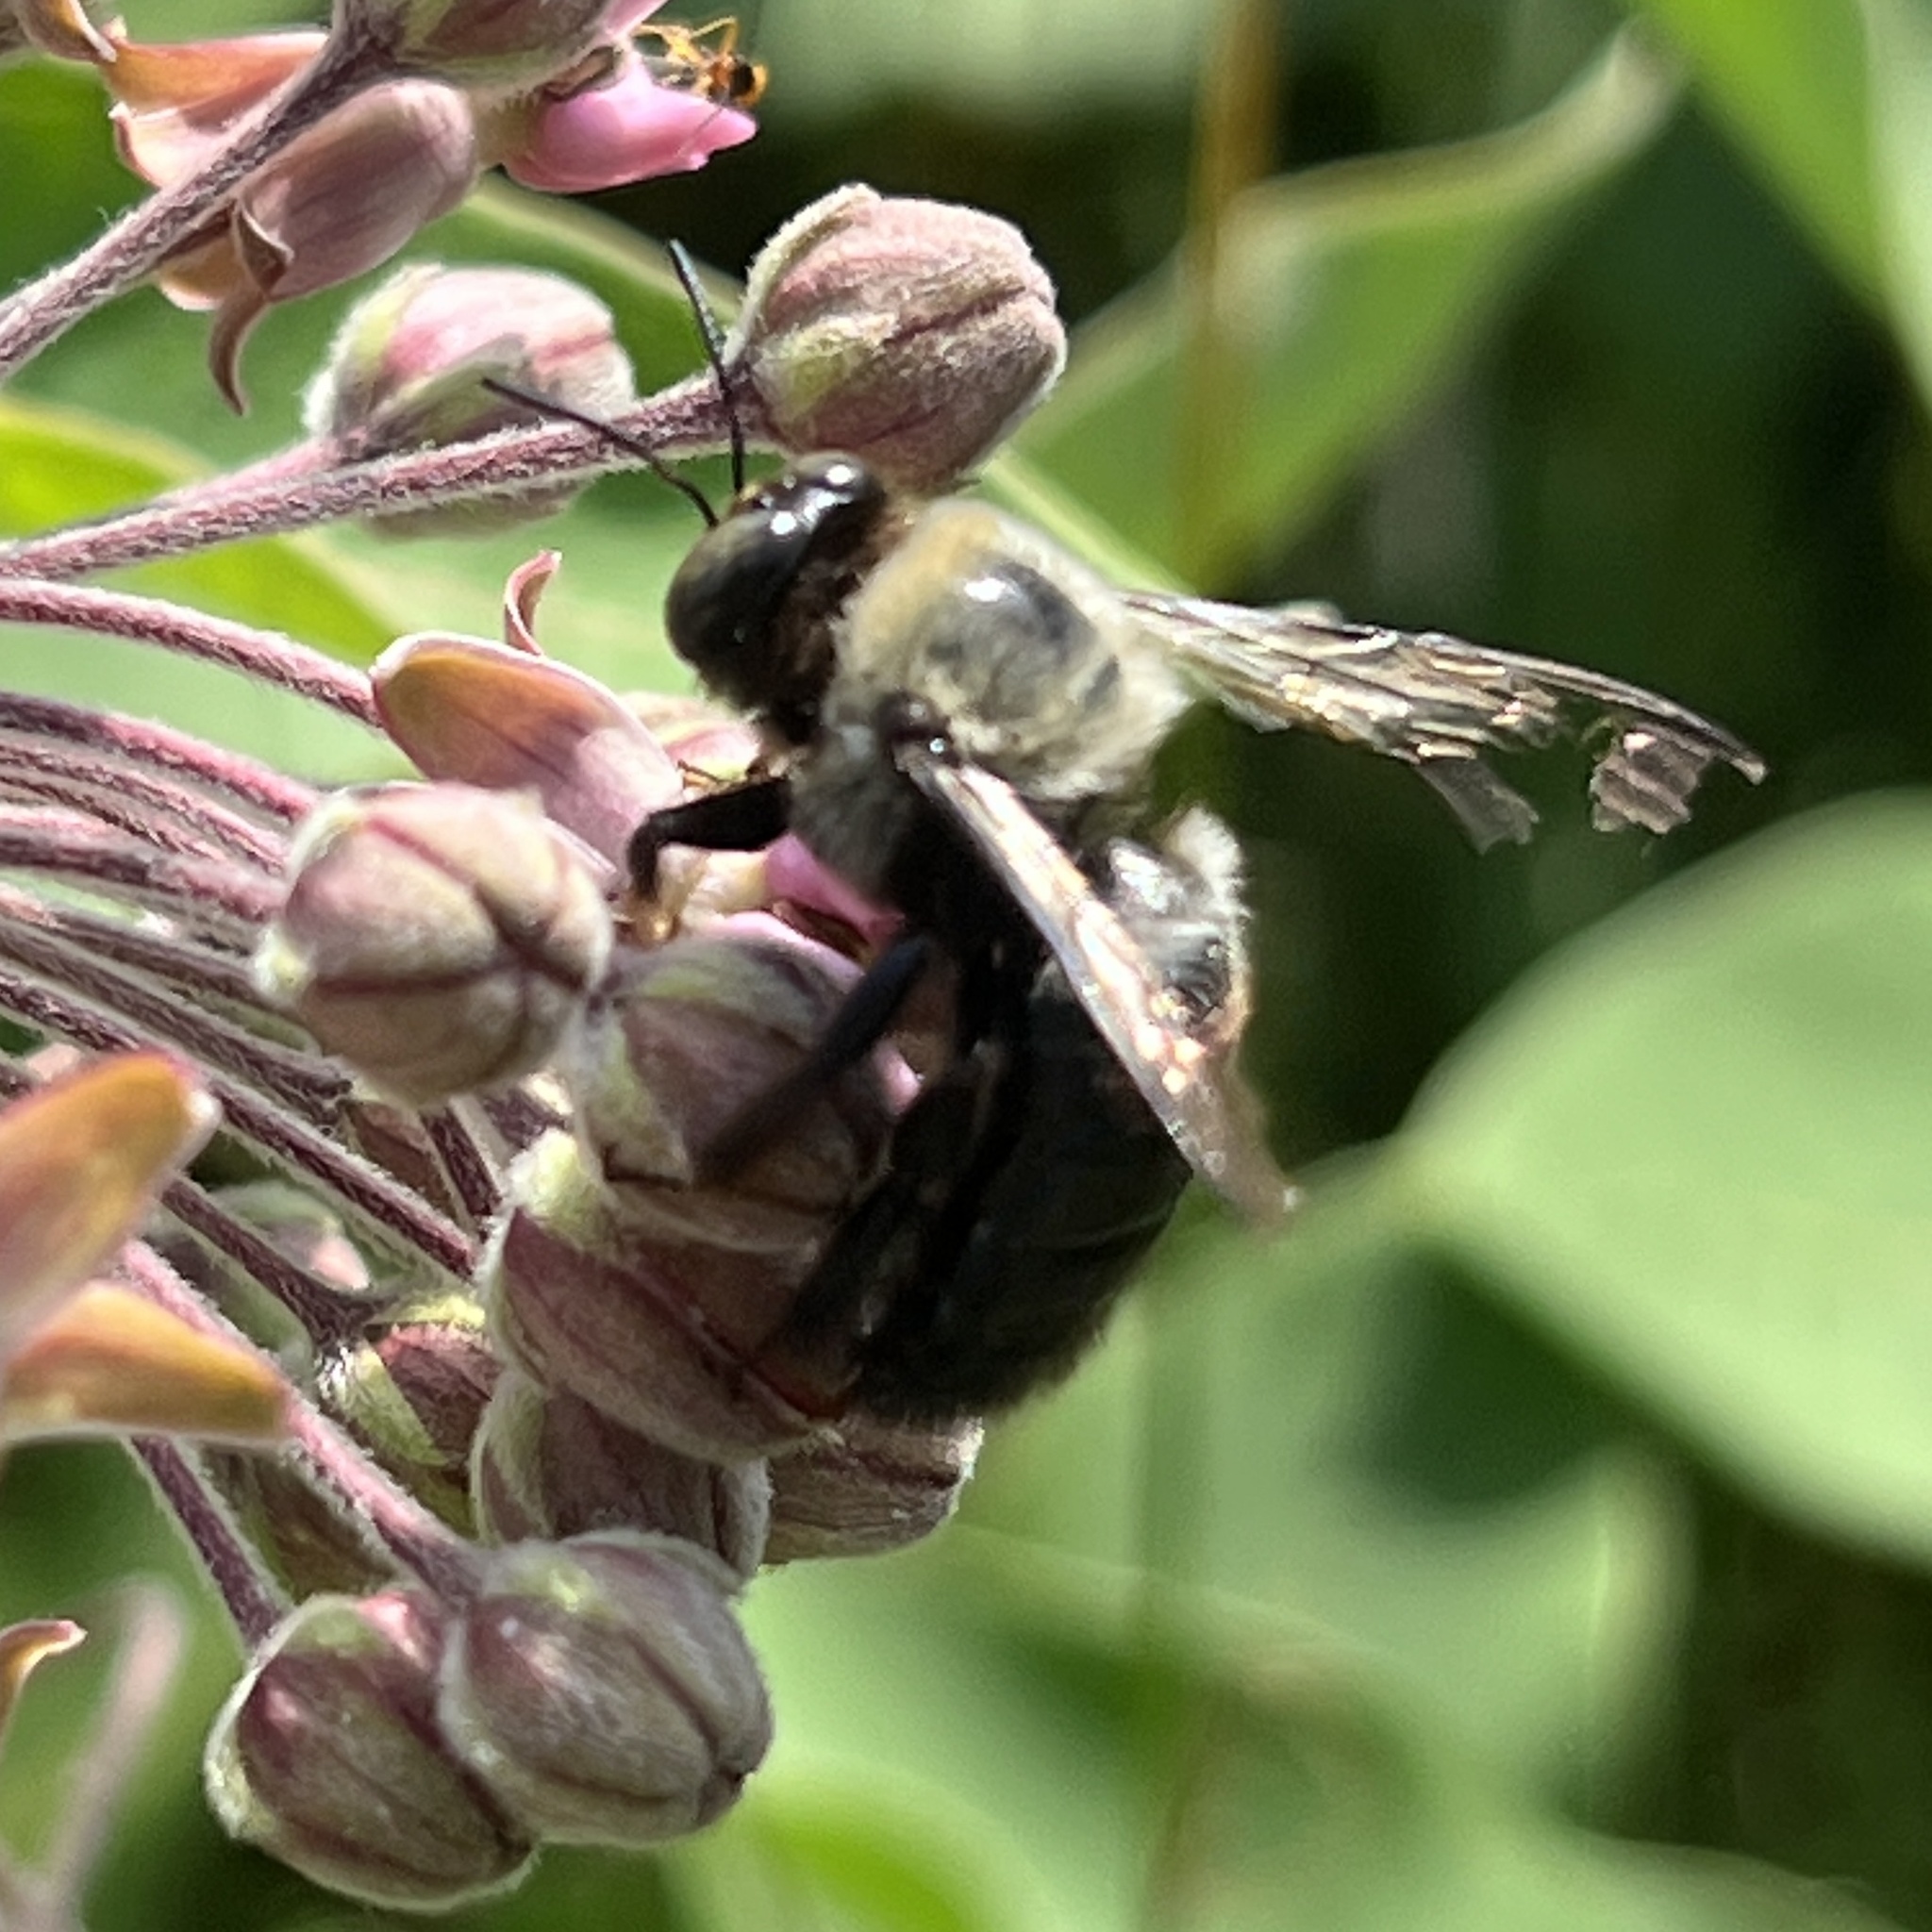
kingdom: Animalia
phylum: Arthropoda
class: Insecta
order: Hymenoptera
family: Apidae
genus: Xylocopa
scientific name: Xylocopa virginica
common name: Carpenter bee
